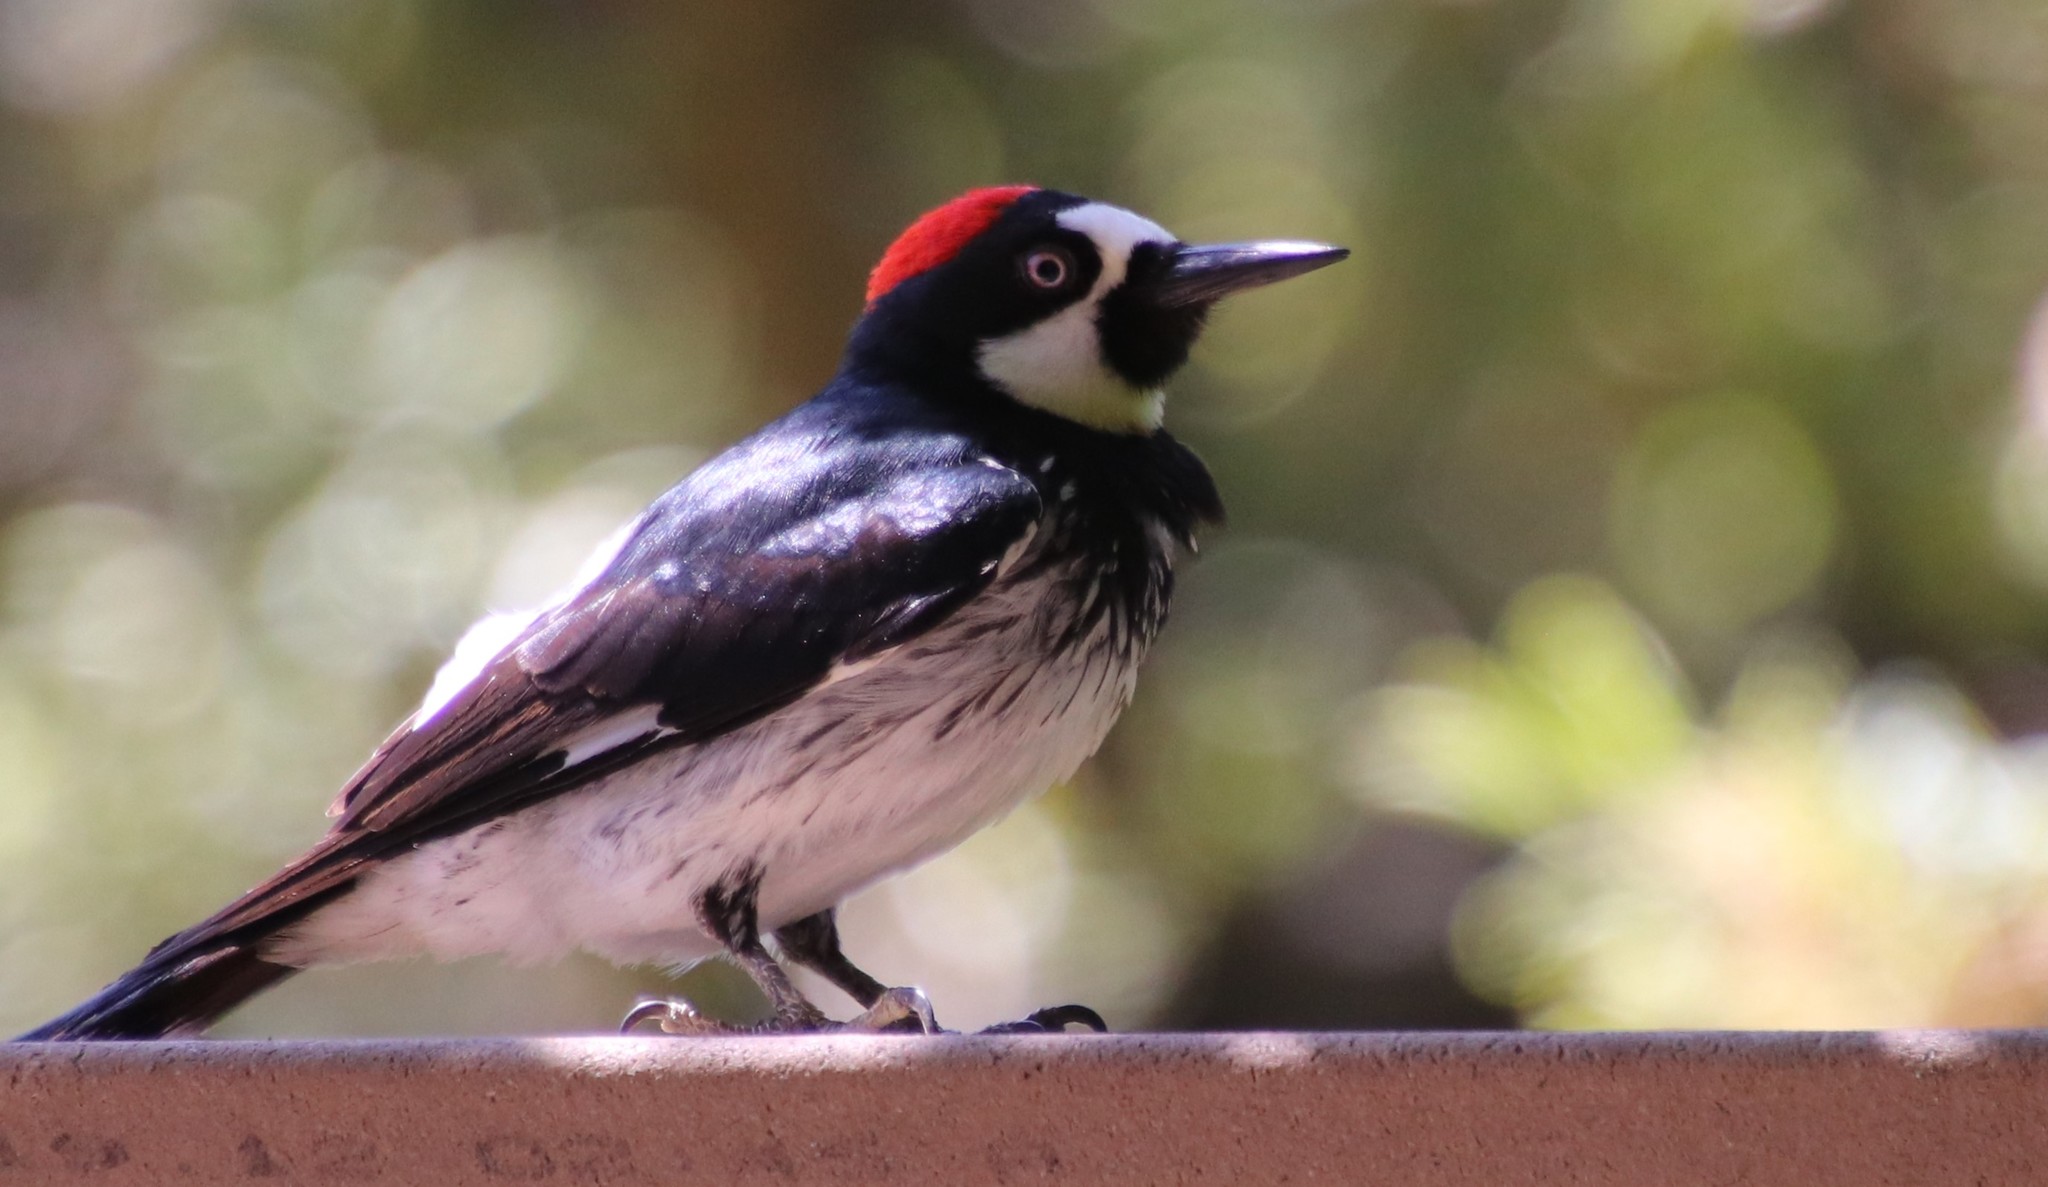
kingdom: Animalia
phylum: Chordata
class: Aves
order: Piciformes
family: Picidae
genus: Melanerpes
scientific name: Melanerpes formicivorus
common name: Acorn woodpecker
